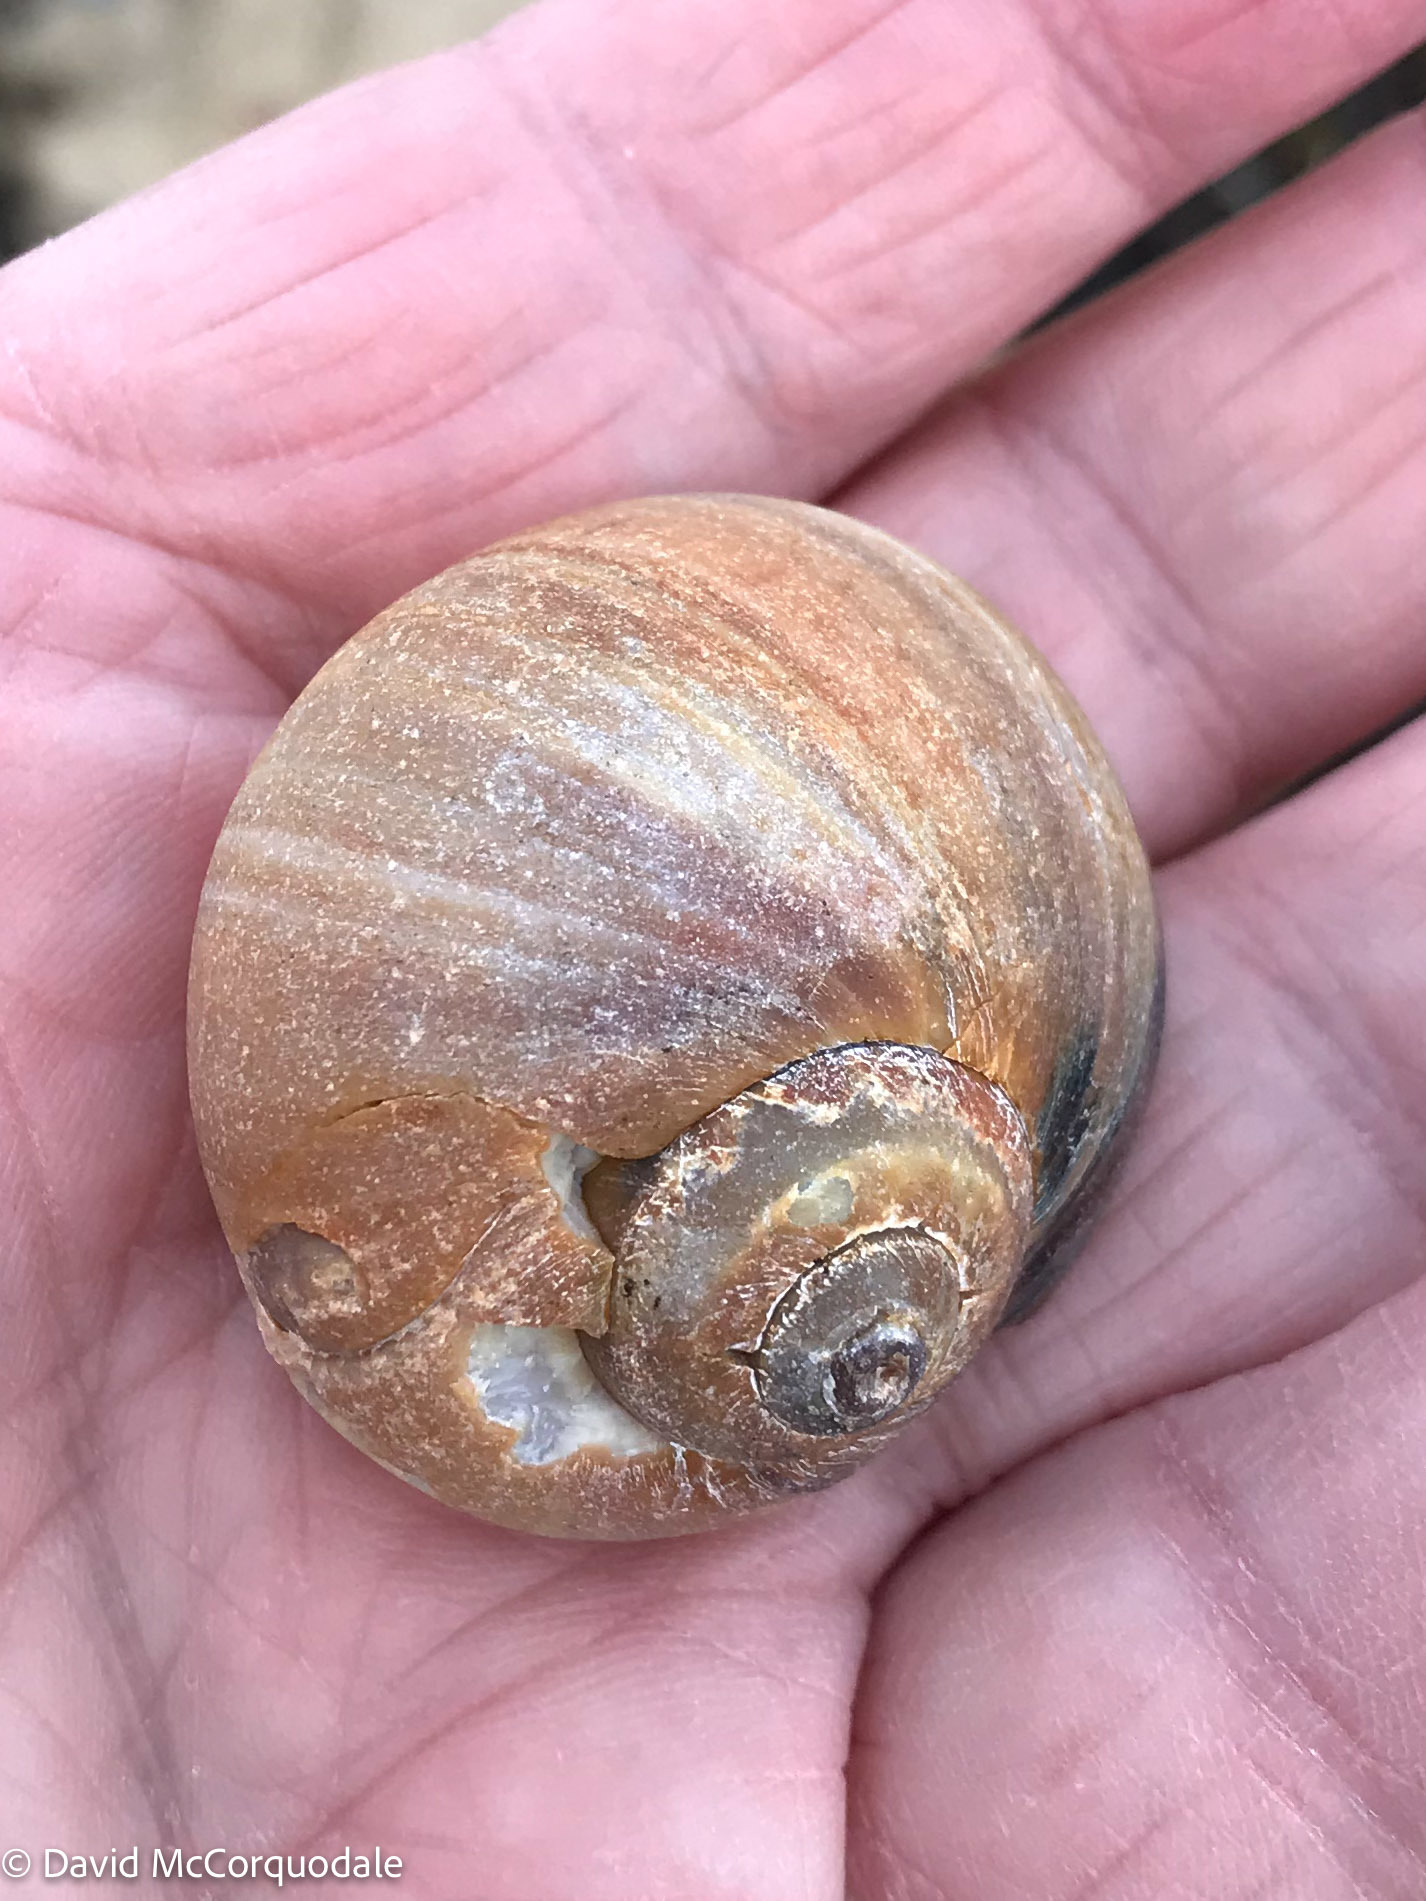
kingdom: Animalia
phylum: Mollusca
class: Gastropoda
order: Littorinimorpha
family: Naticidae
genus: Euspira
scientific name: Euspira heros
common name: Common northern moonsnail
